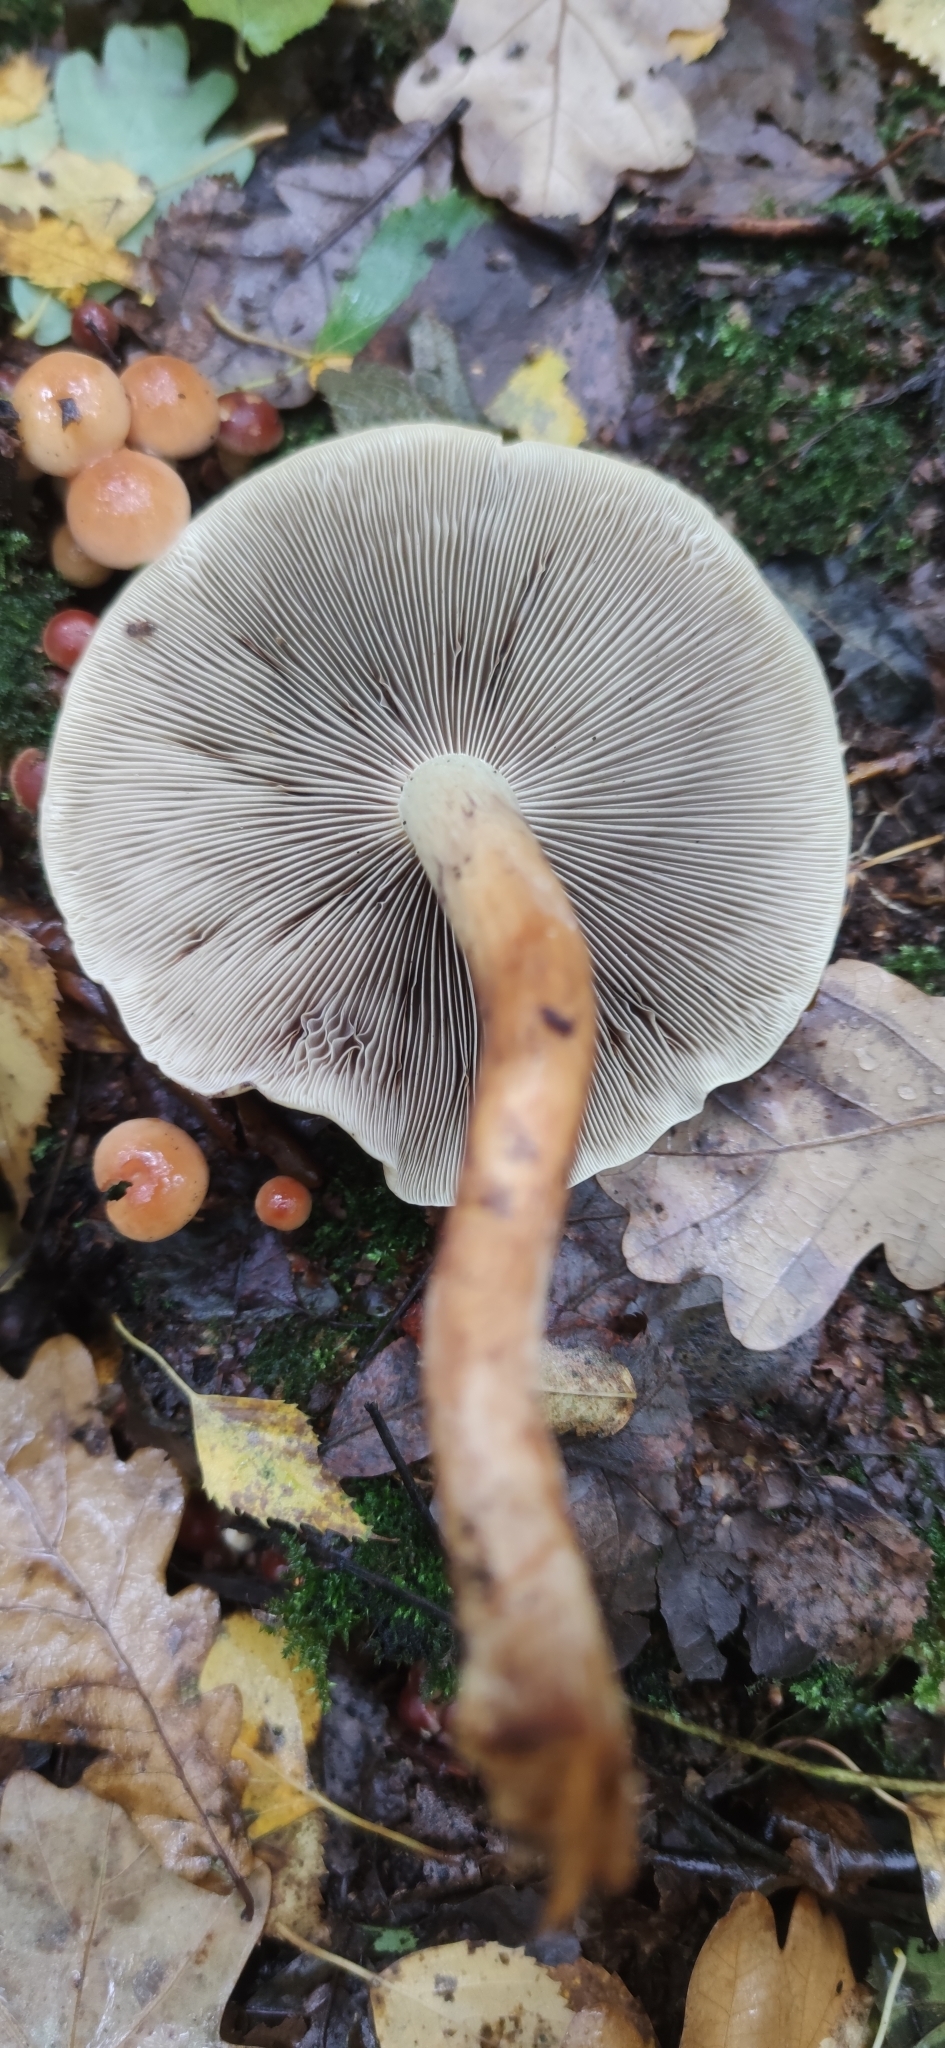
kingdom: Fungi
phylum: Basidiomycota
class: Agaricomycetes
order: Agaricales
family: Strophariaceae
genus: Hypholoma
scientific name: Hypholoma lateritium
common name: Brick caps
